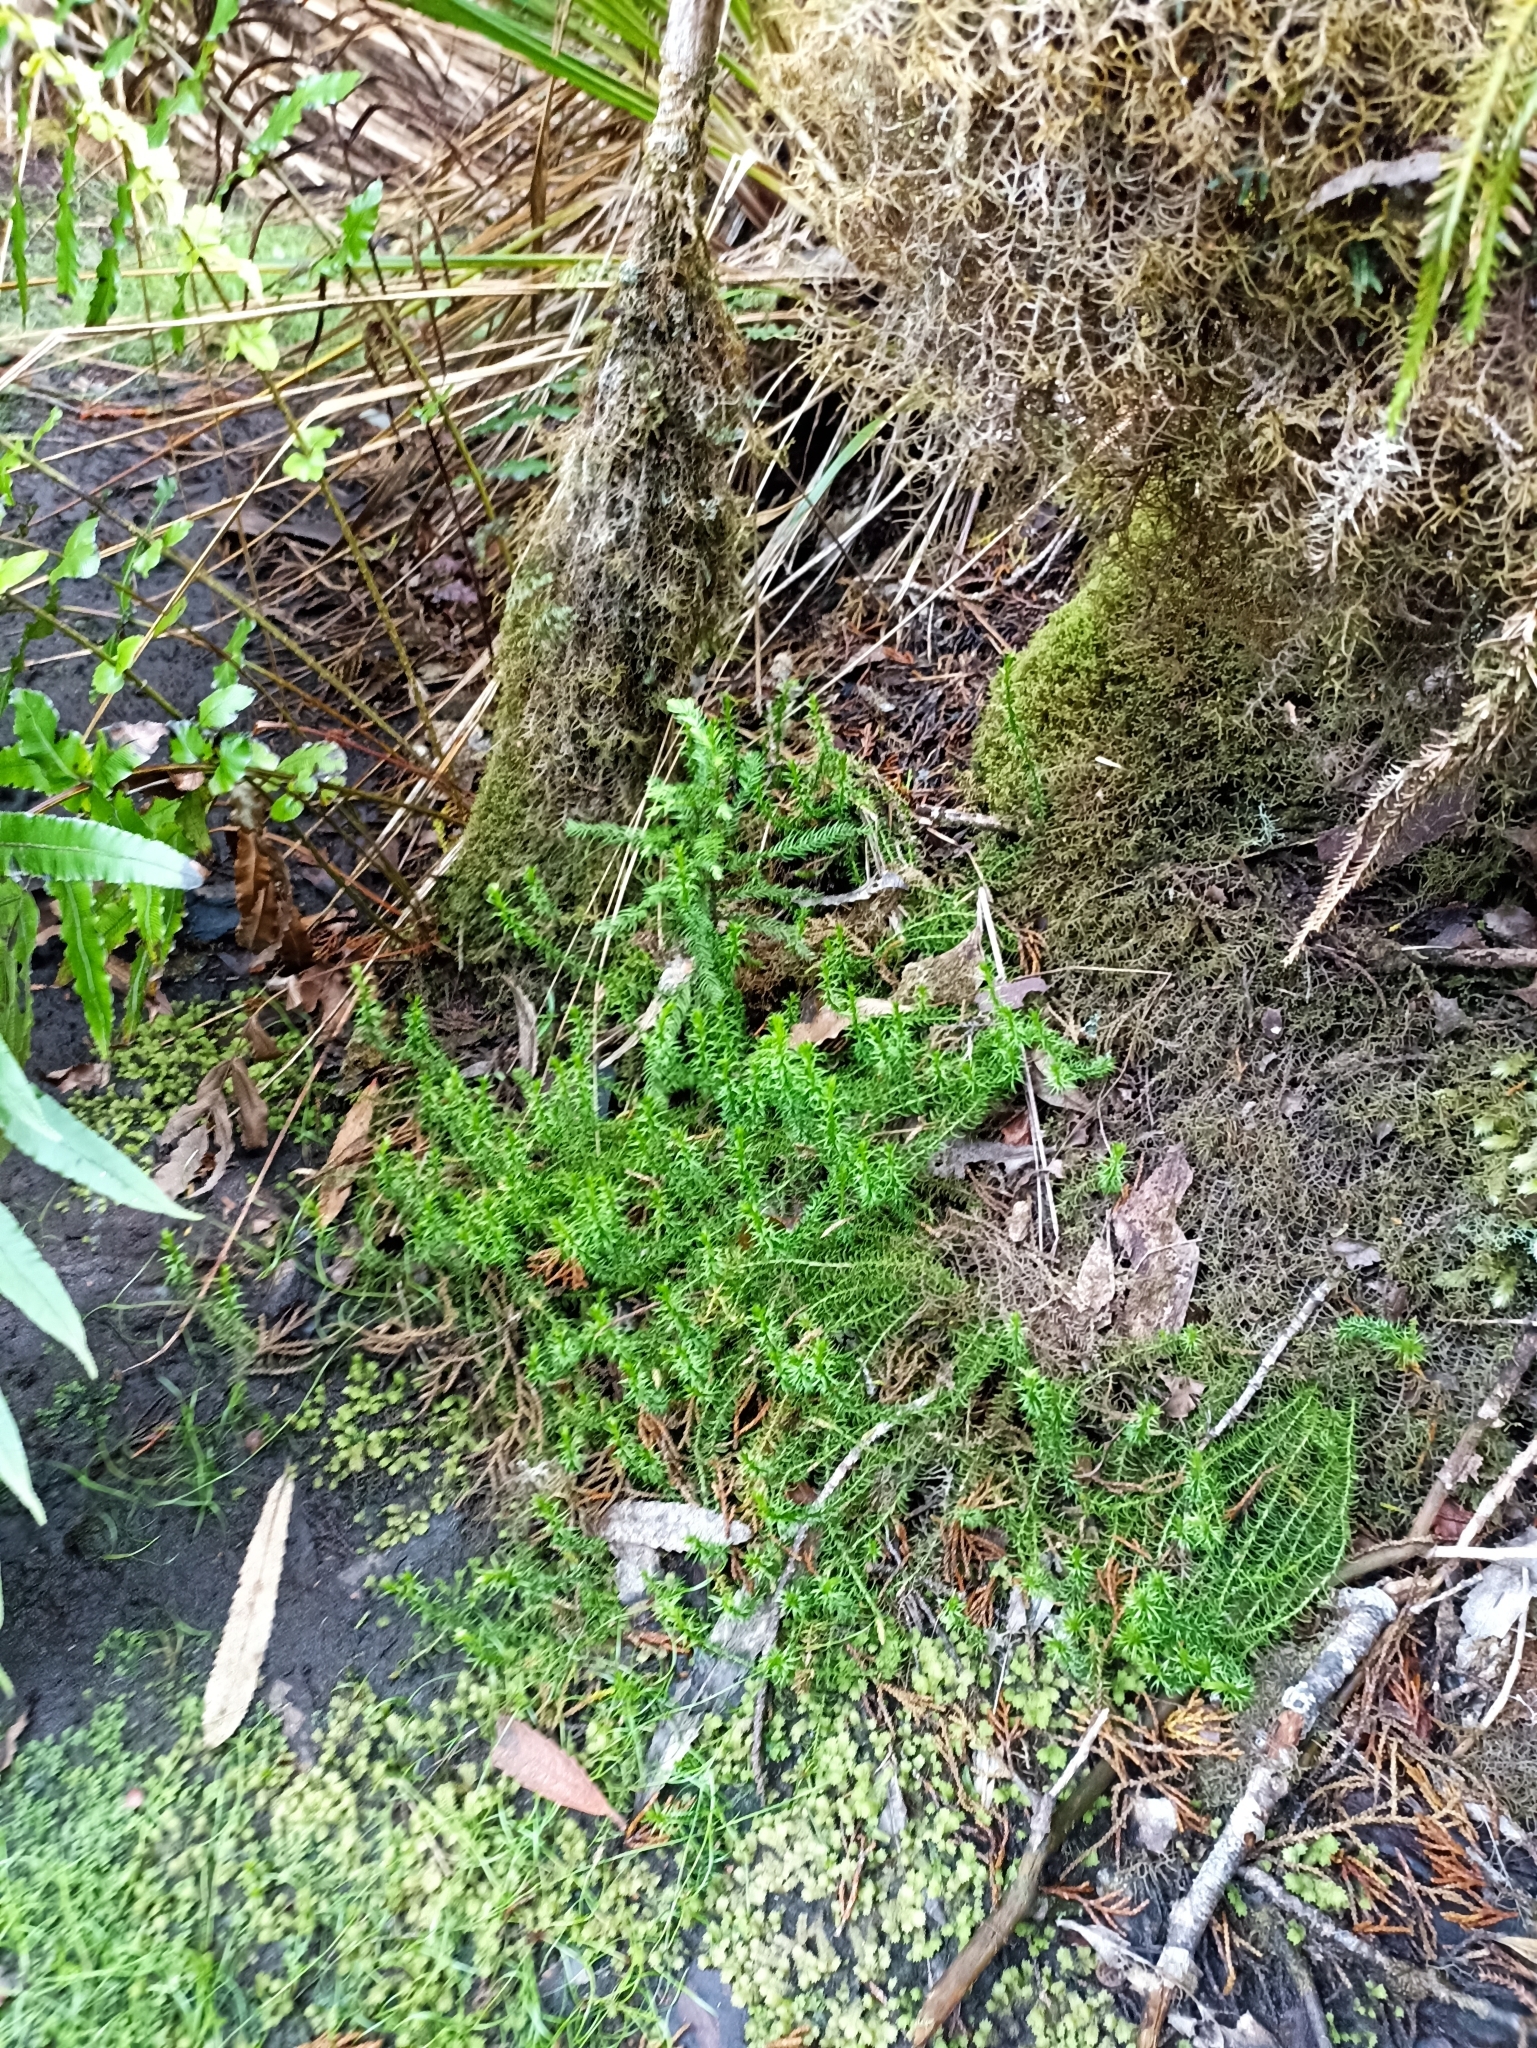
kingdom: Plantae
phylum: Tracheophyta
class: Lycopodiopsida
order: Lycopodiales
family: Lycopodiaceae
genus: Lateristachys
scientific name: Lateristachys lateralis
